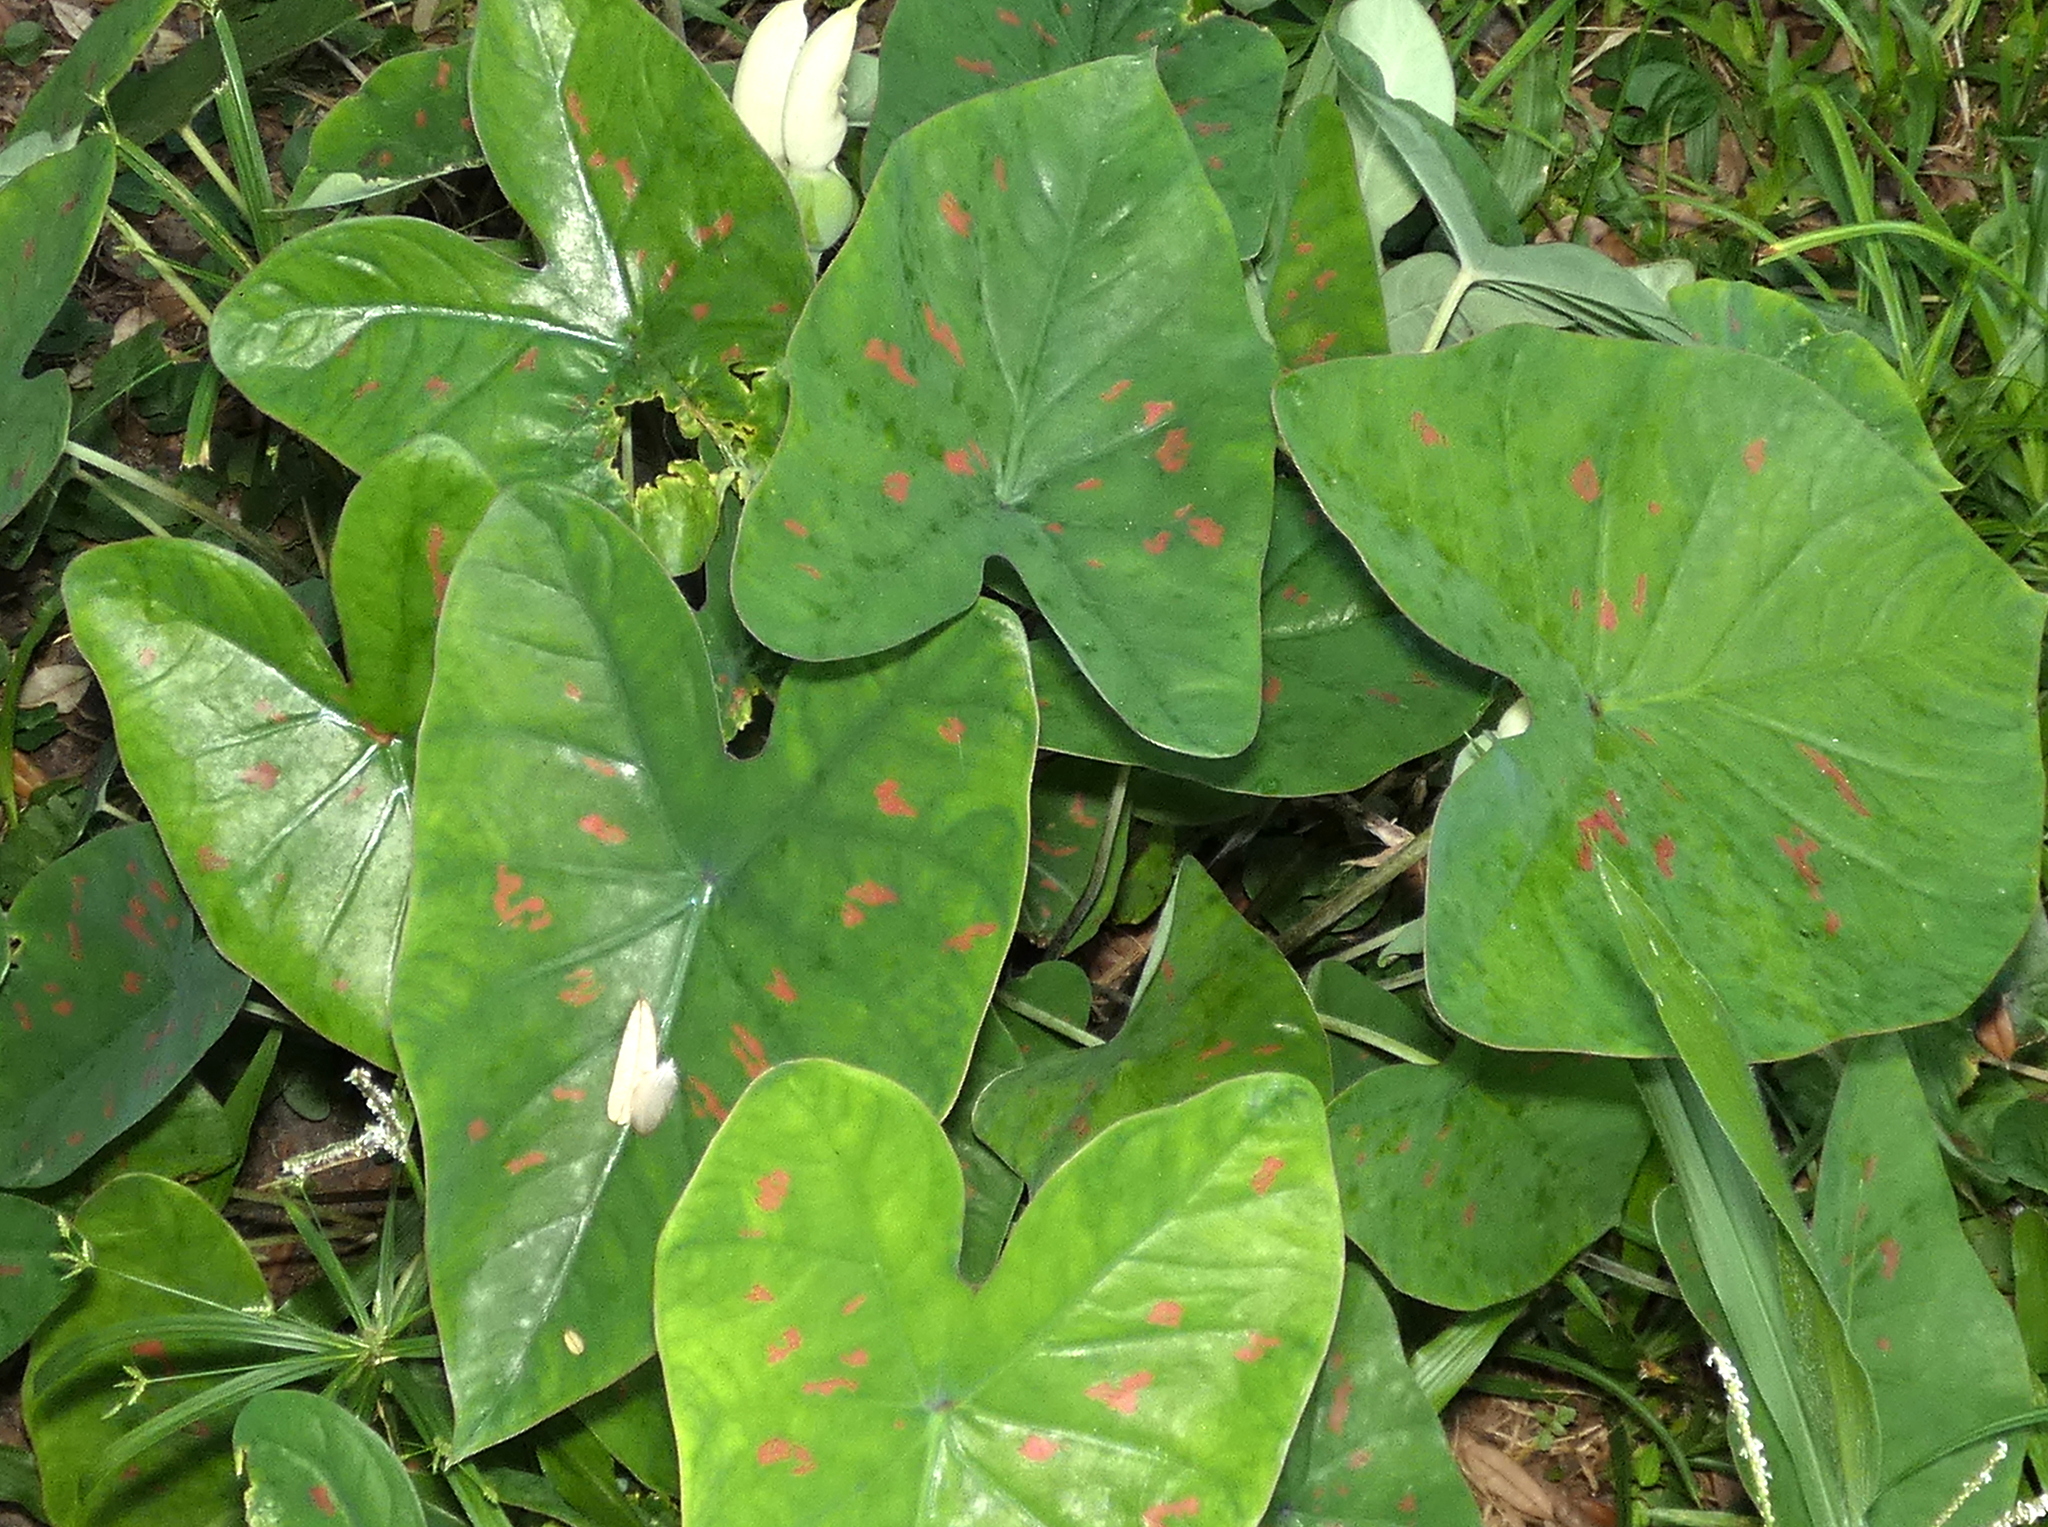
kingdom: Plantae
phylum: Tracheophyta
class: Liliopsida
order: Alismatales
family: Araceae
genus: Caladium
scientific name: Caladium bicolor
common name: Artist's pallet
